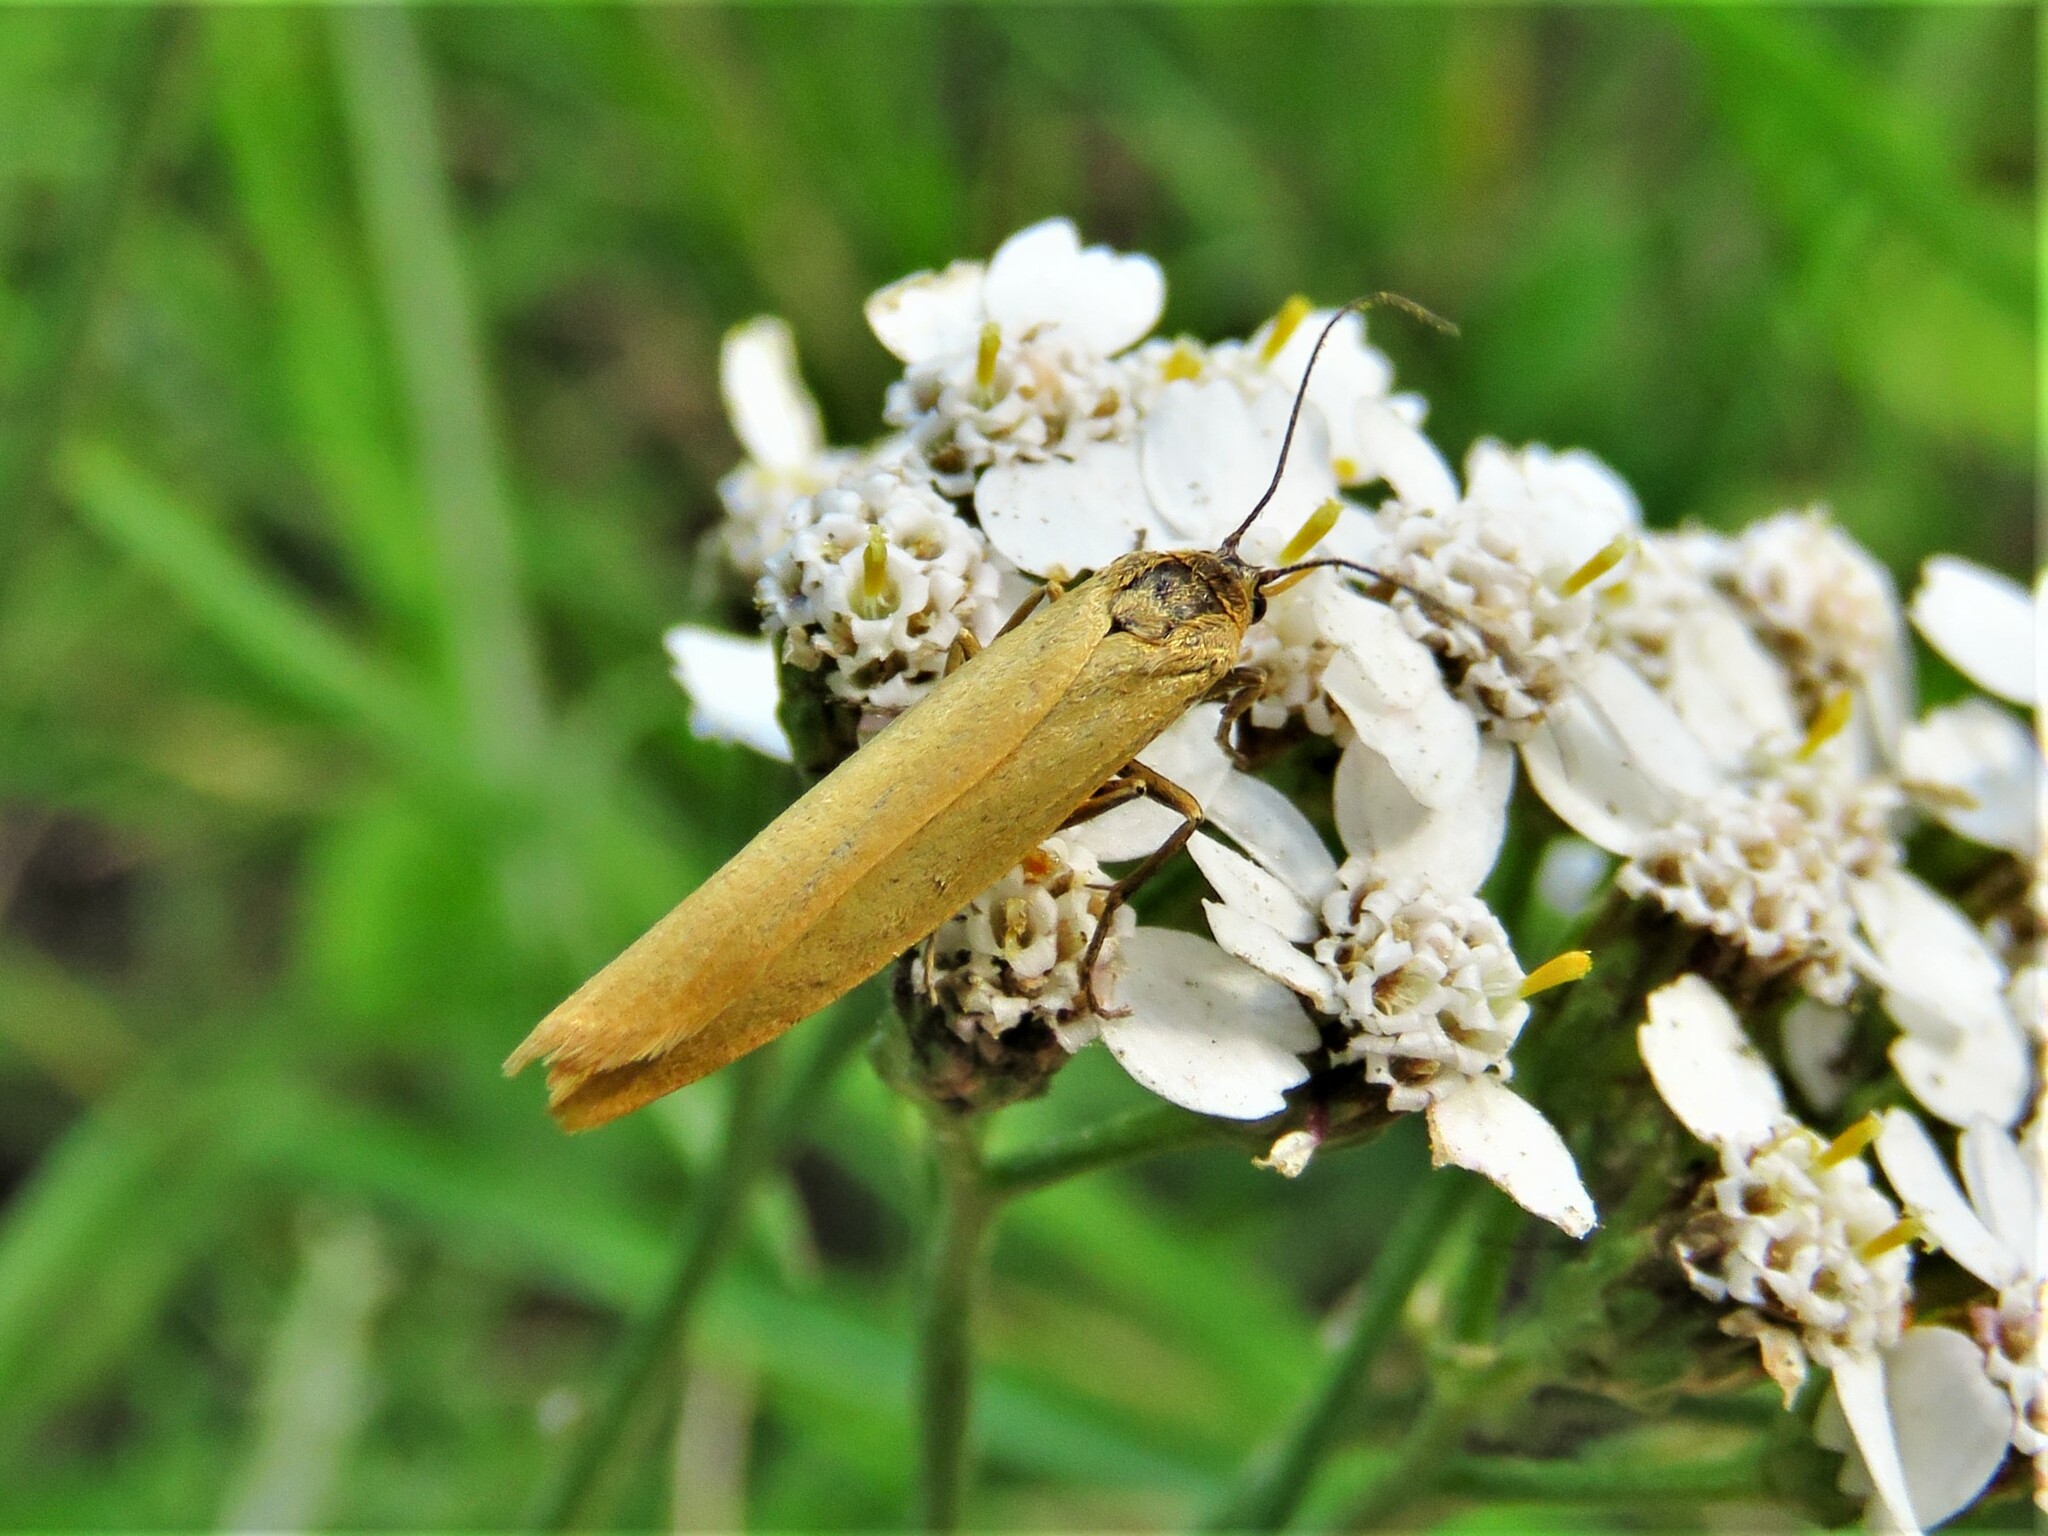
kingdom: Animalia
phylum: Arthropoda
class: Insecta
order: Lepidoptera
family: Erebidae
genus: Indalia
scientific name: Indalia lutarella
